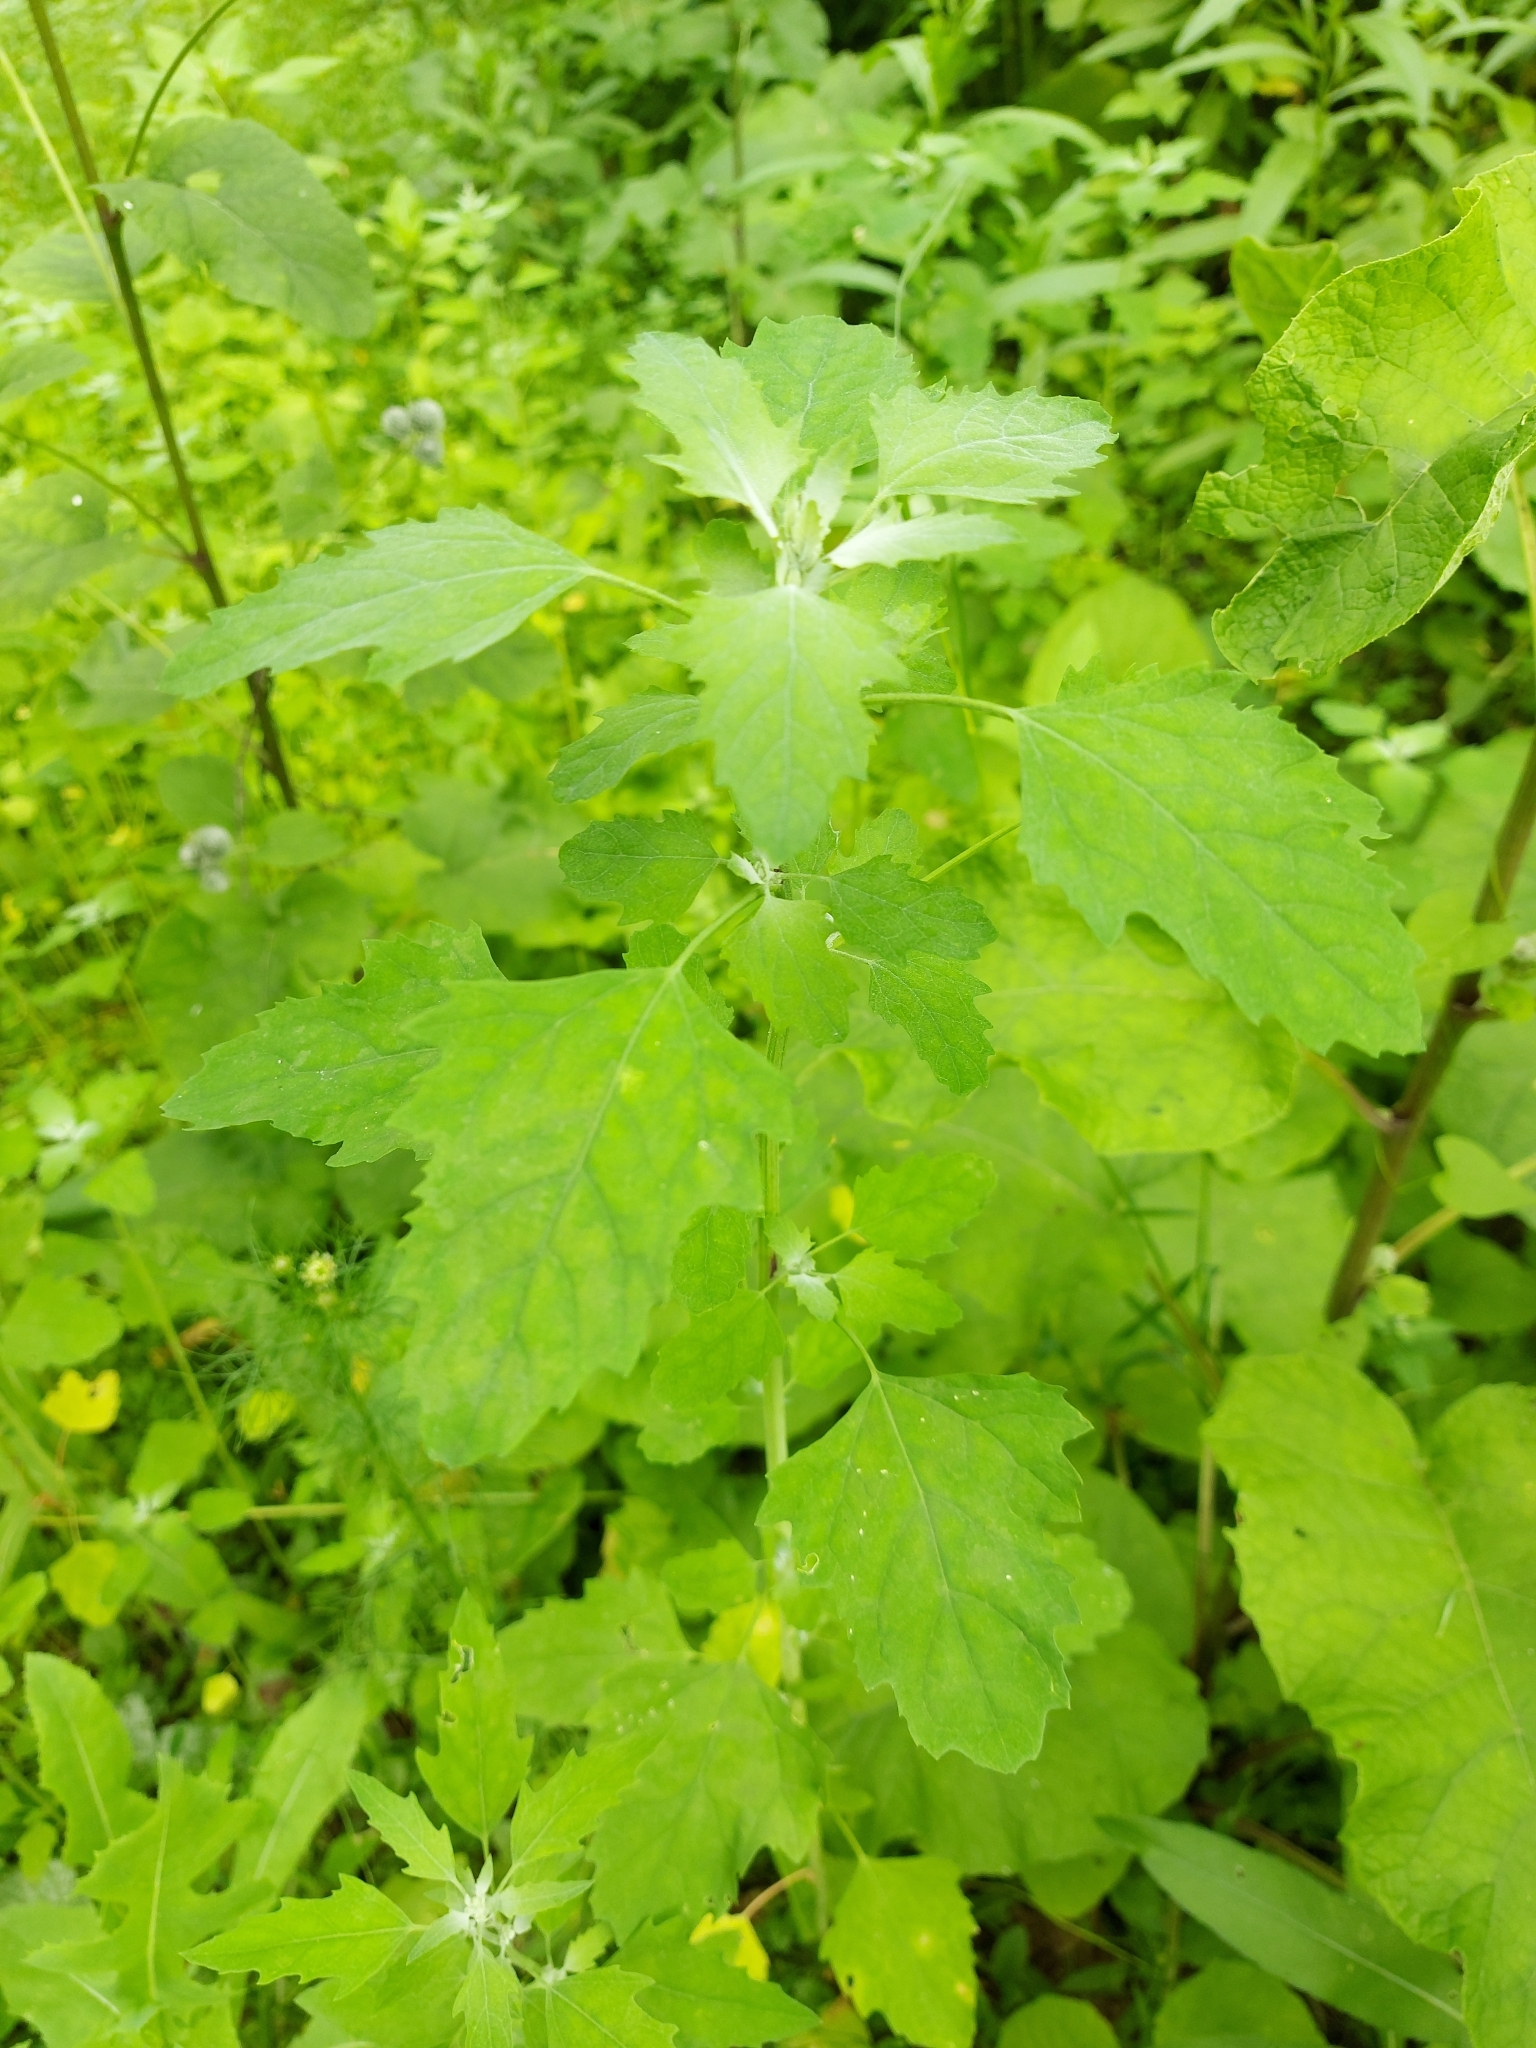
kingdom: Plantae
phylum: Tracheophyta
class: Magnoliopsida
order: Caryophyllales
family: Amaranthaceae
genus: Chenopodium
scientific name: Chenopodium album
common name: Fat-hen
